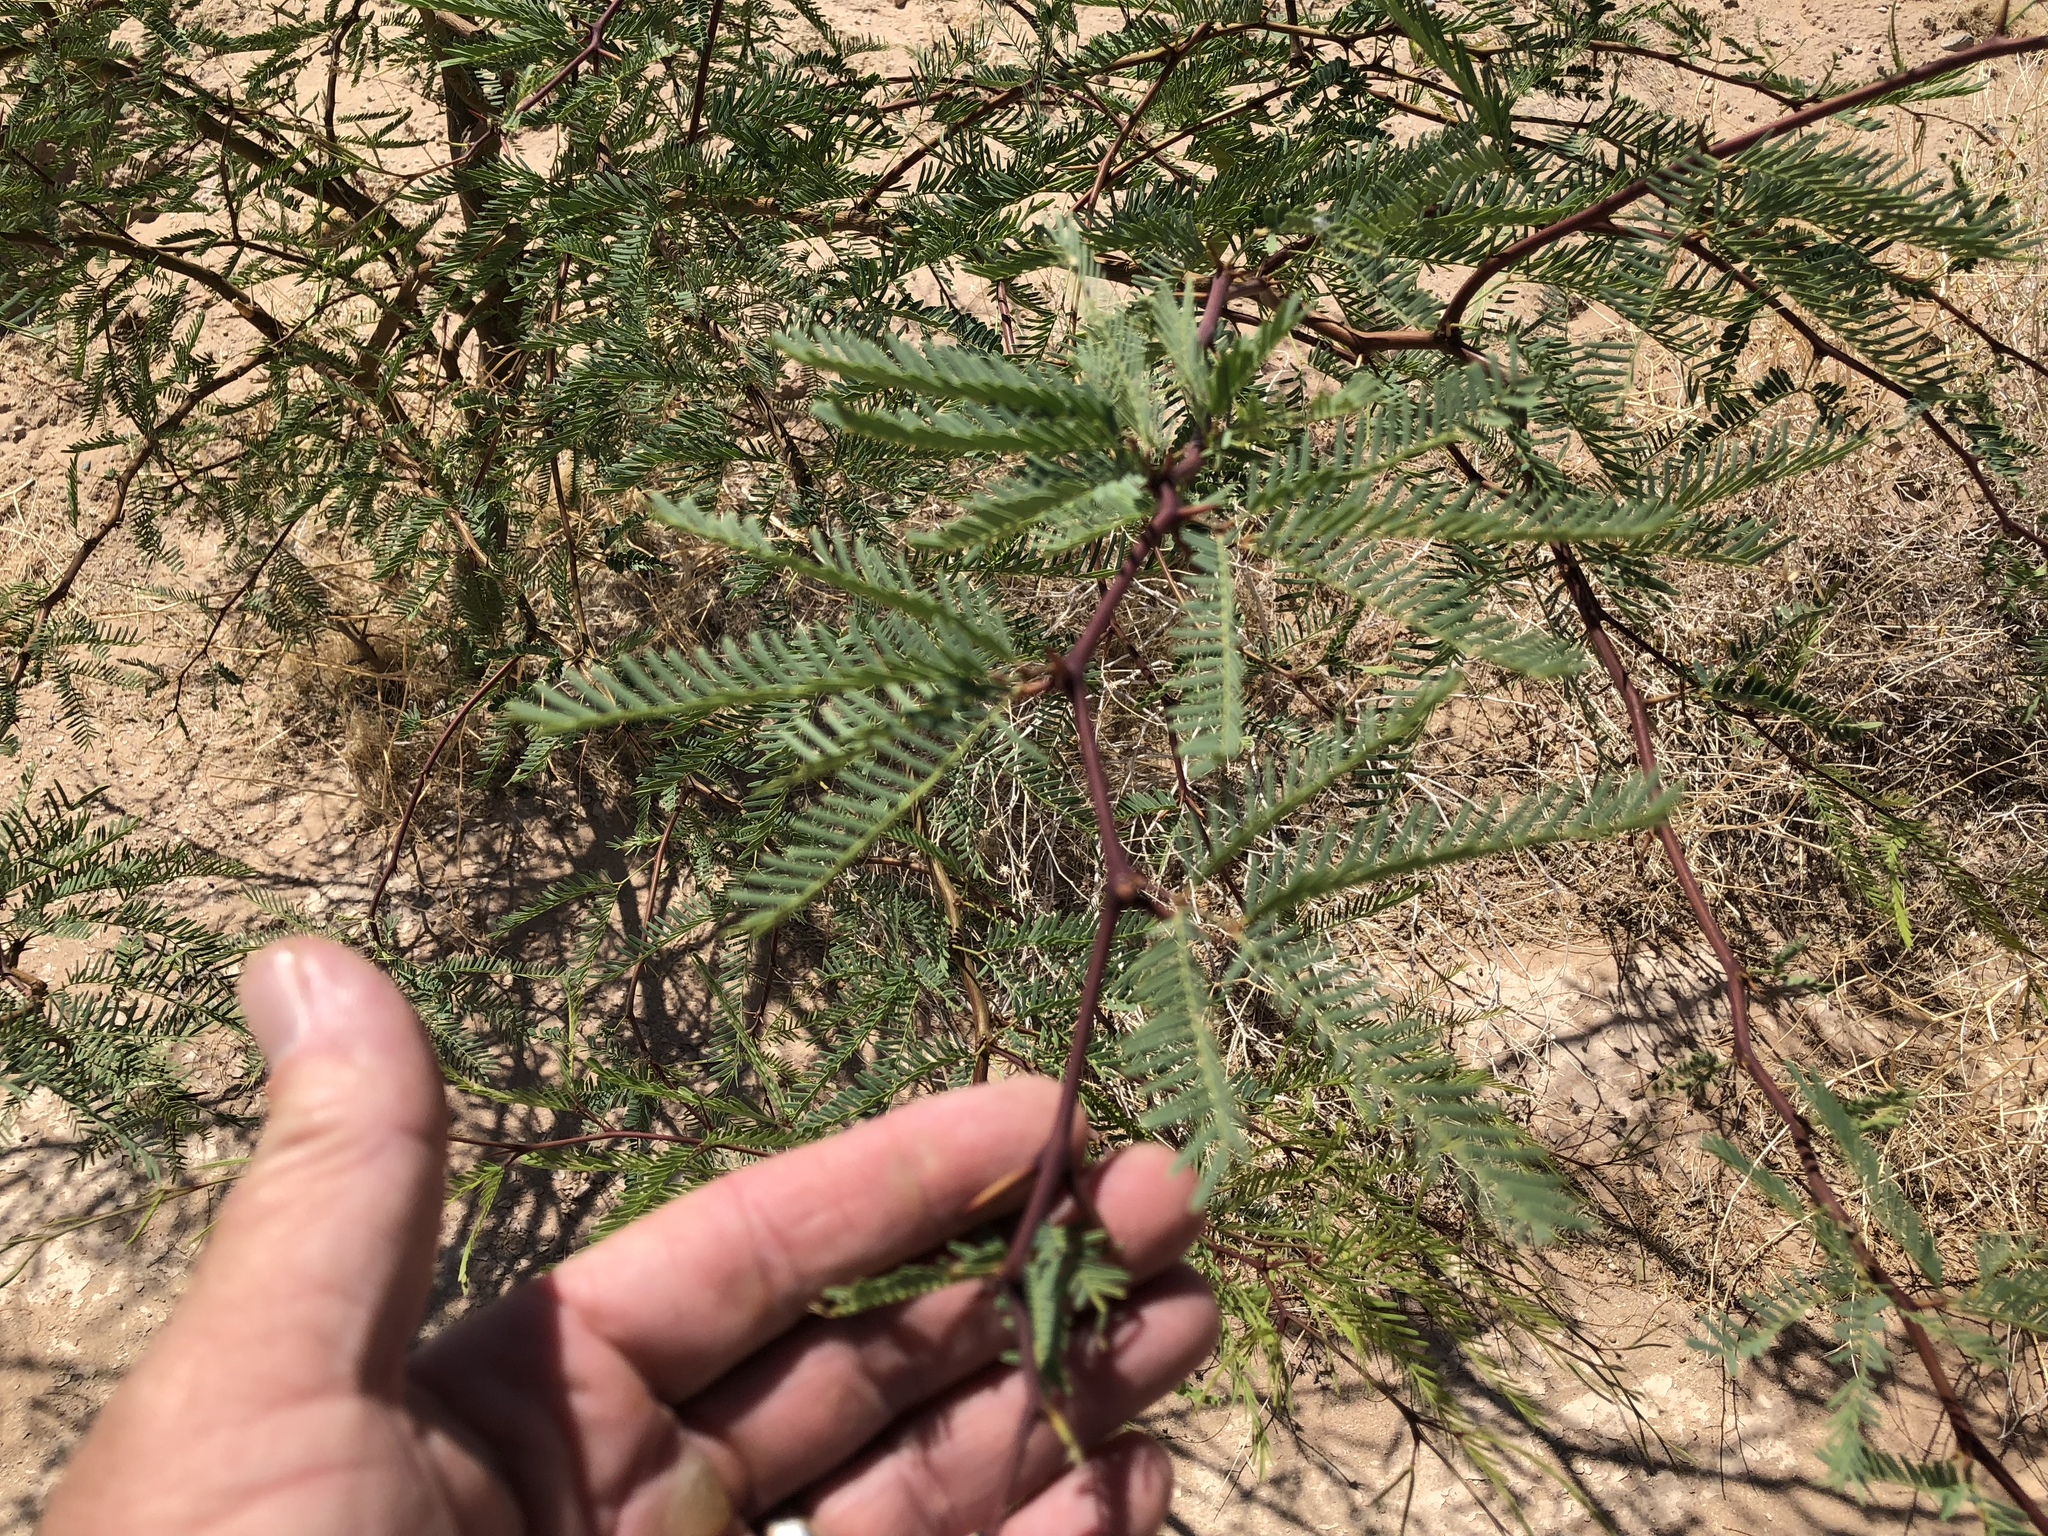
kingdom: Plantae
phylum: Tracheophyta
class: Magnoliopsida
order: Fabales
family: Fabaceae
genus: Prosopis
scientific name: Prosopis glandulosa
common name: Honey mesquite
